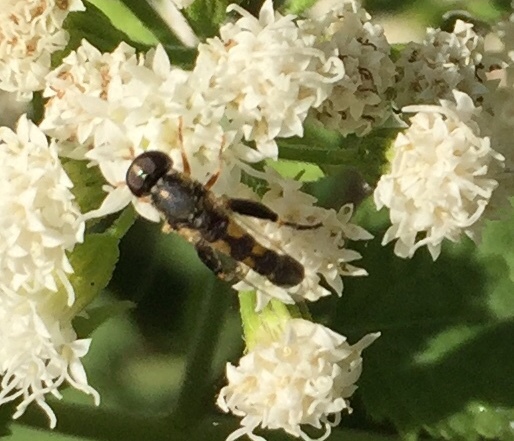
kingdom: Animalia
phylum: Arthropoda
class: Insecta
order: Diptera
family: Syrphidae
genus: Syritta
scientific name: Syritta pipiens
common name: Hover fly
